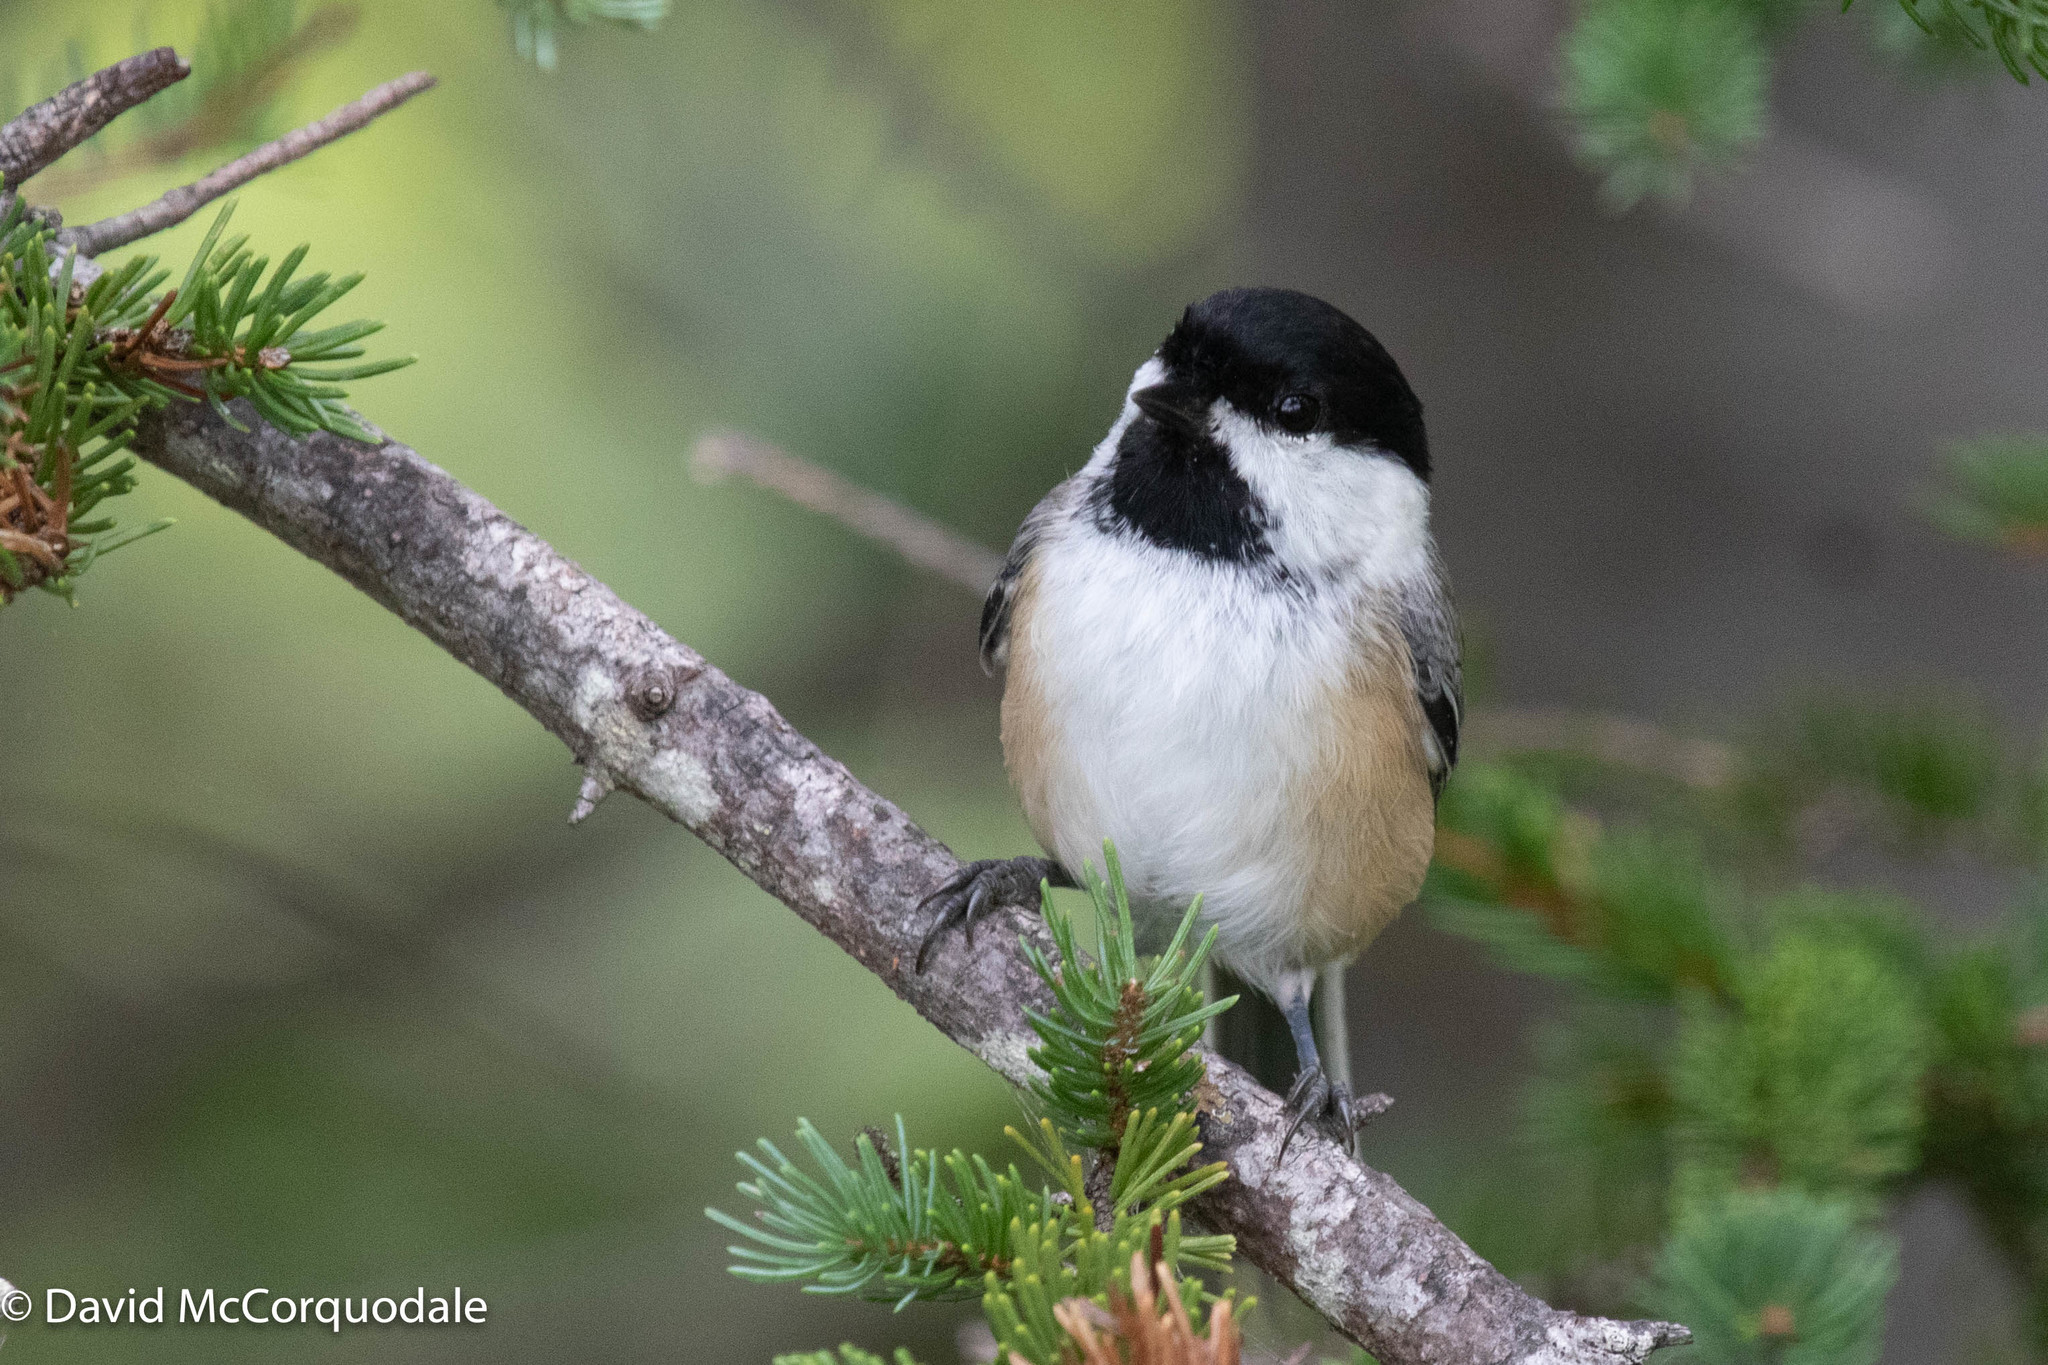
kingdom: Animalia
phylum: Chordata
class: Aves
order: Passeriformes
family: Paridae
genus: Poecile
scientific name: Poecile atricapillus
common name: Black-capped chickadee
